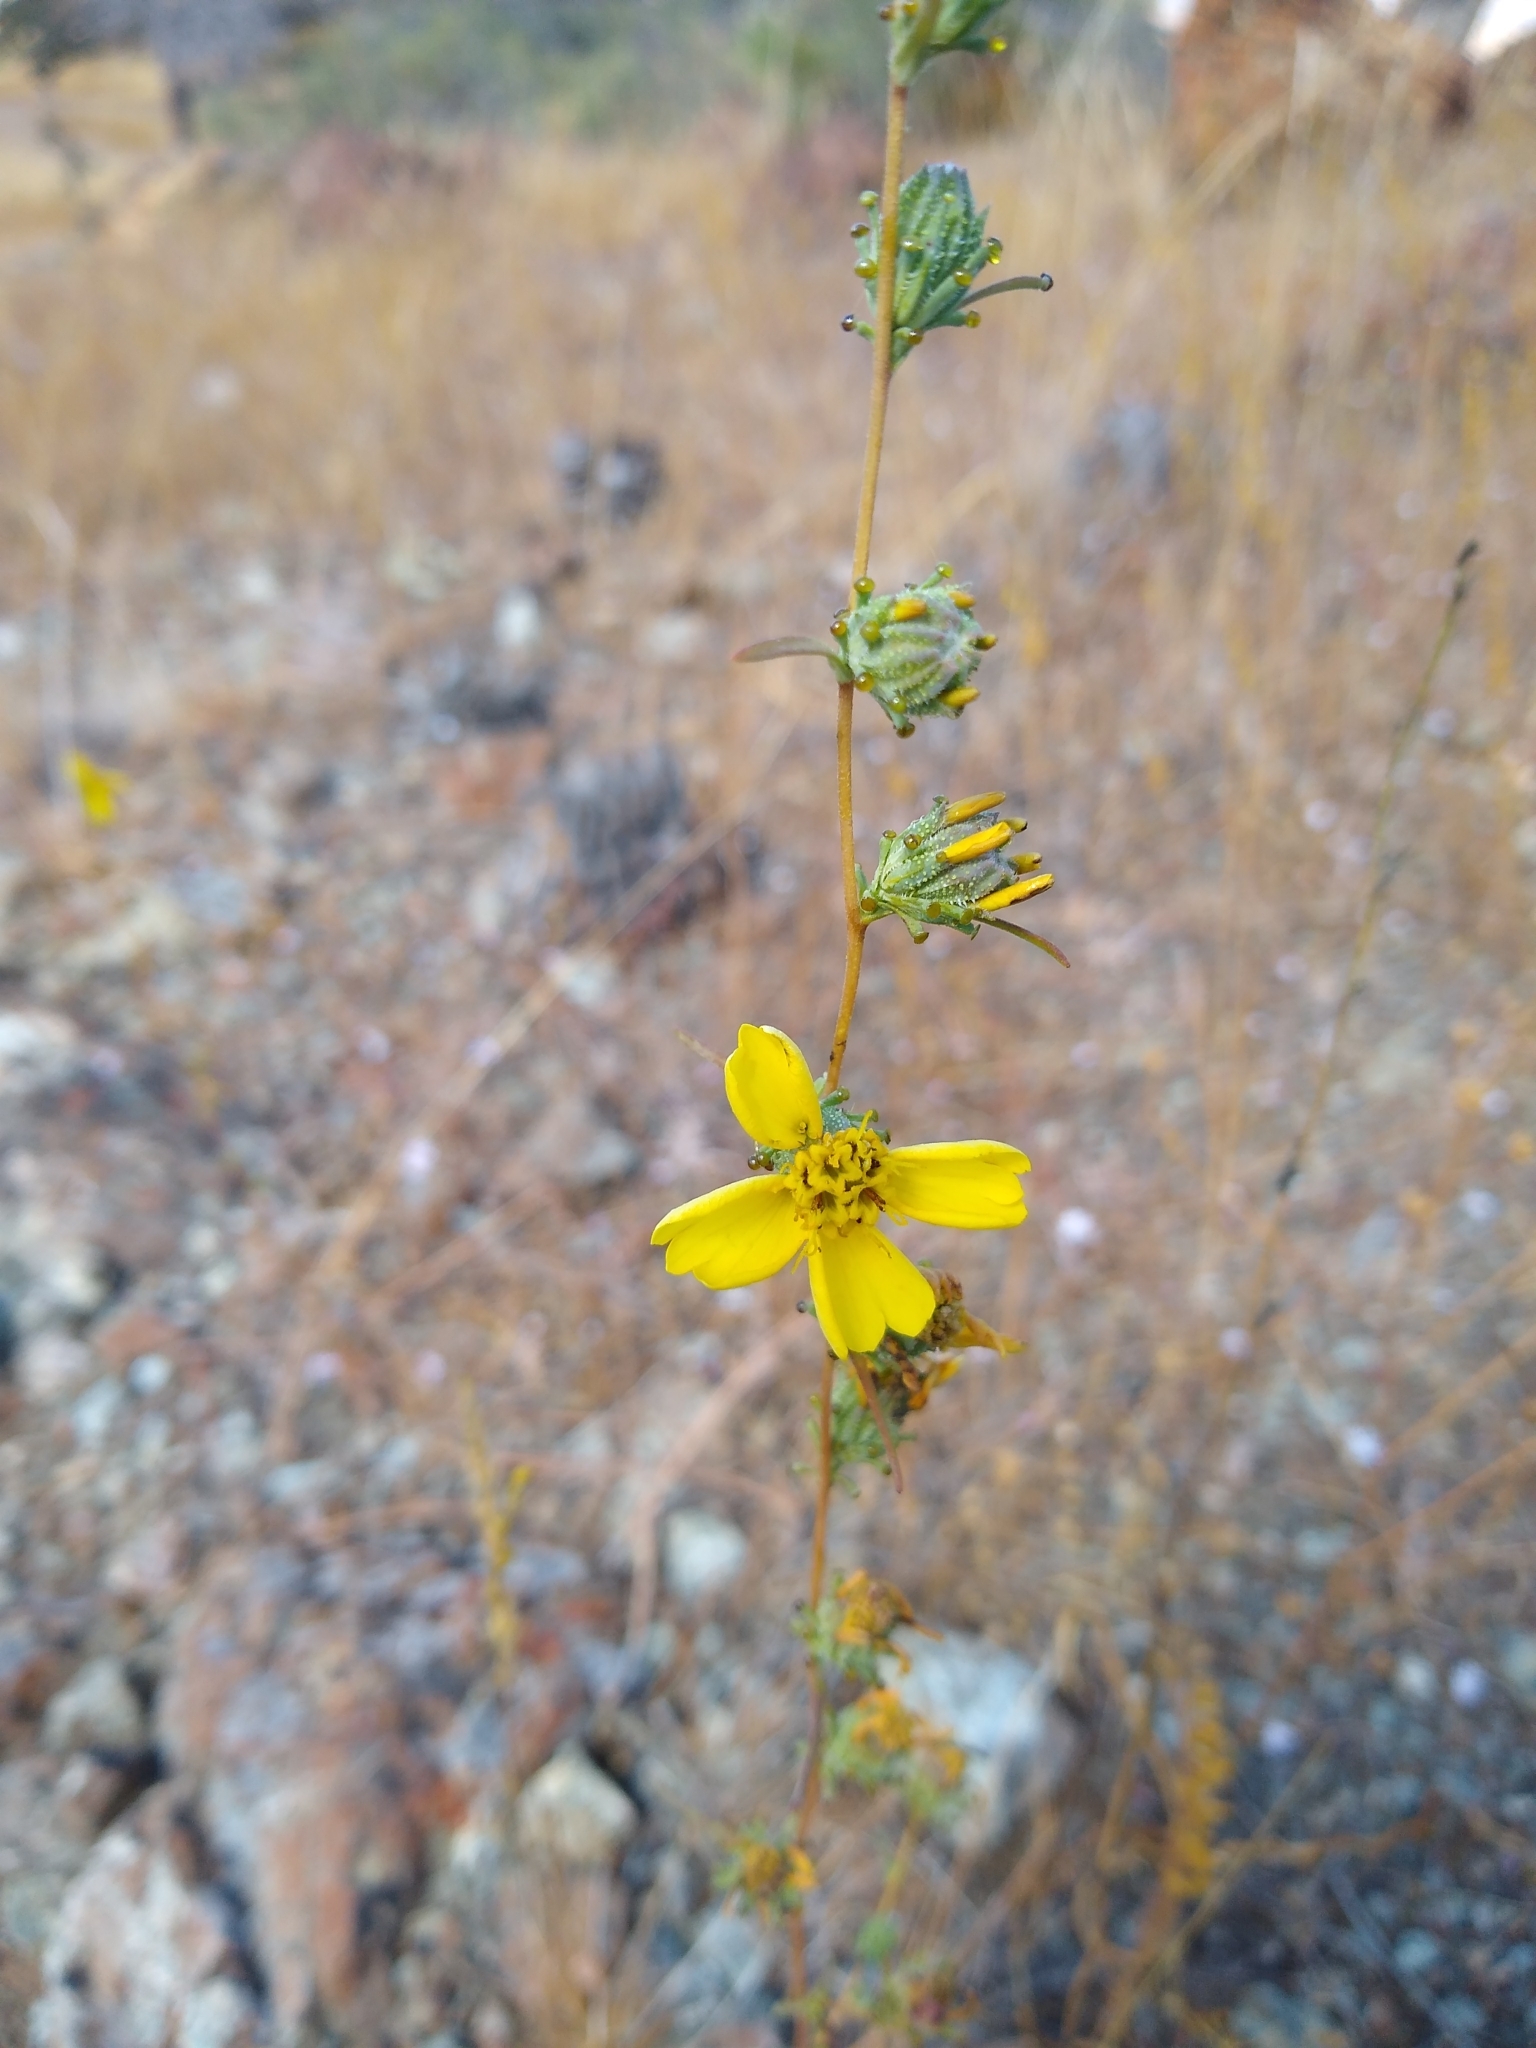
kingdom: Plantae
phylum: Tracheophyta
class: Magnoliopsida
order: Asterales
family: Asteraceae
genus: Calycadenia
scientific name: Calycadenia truncata
